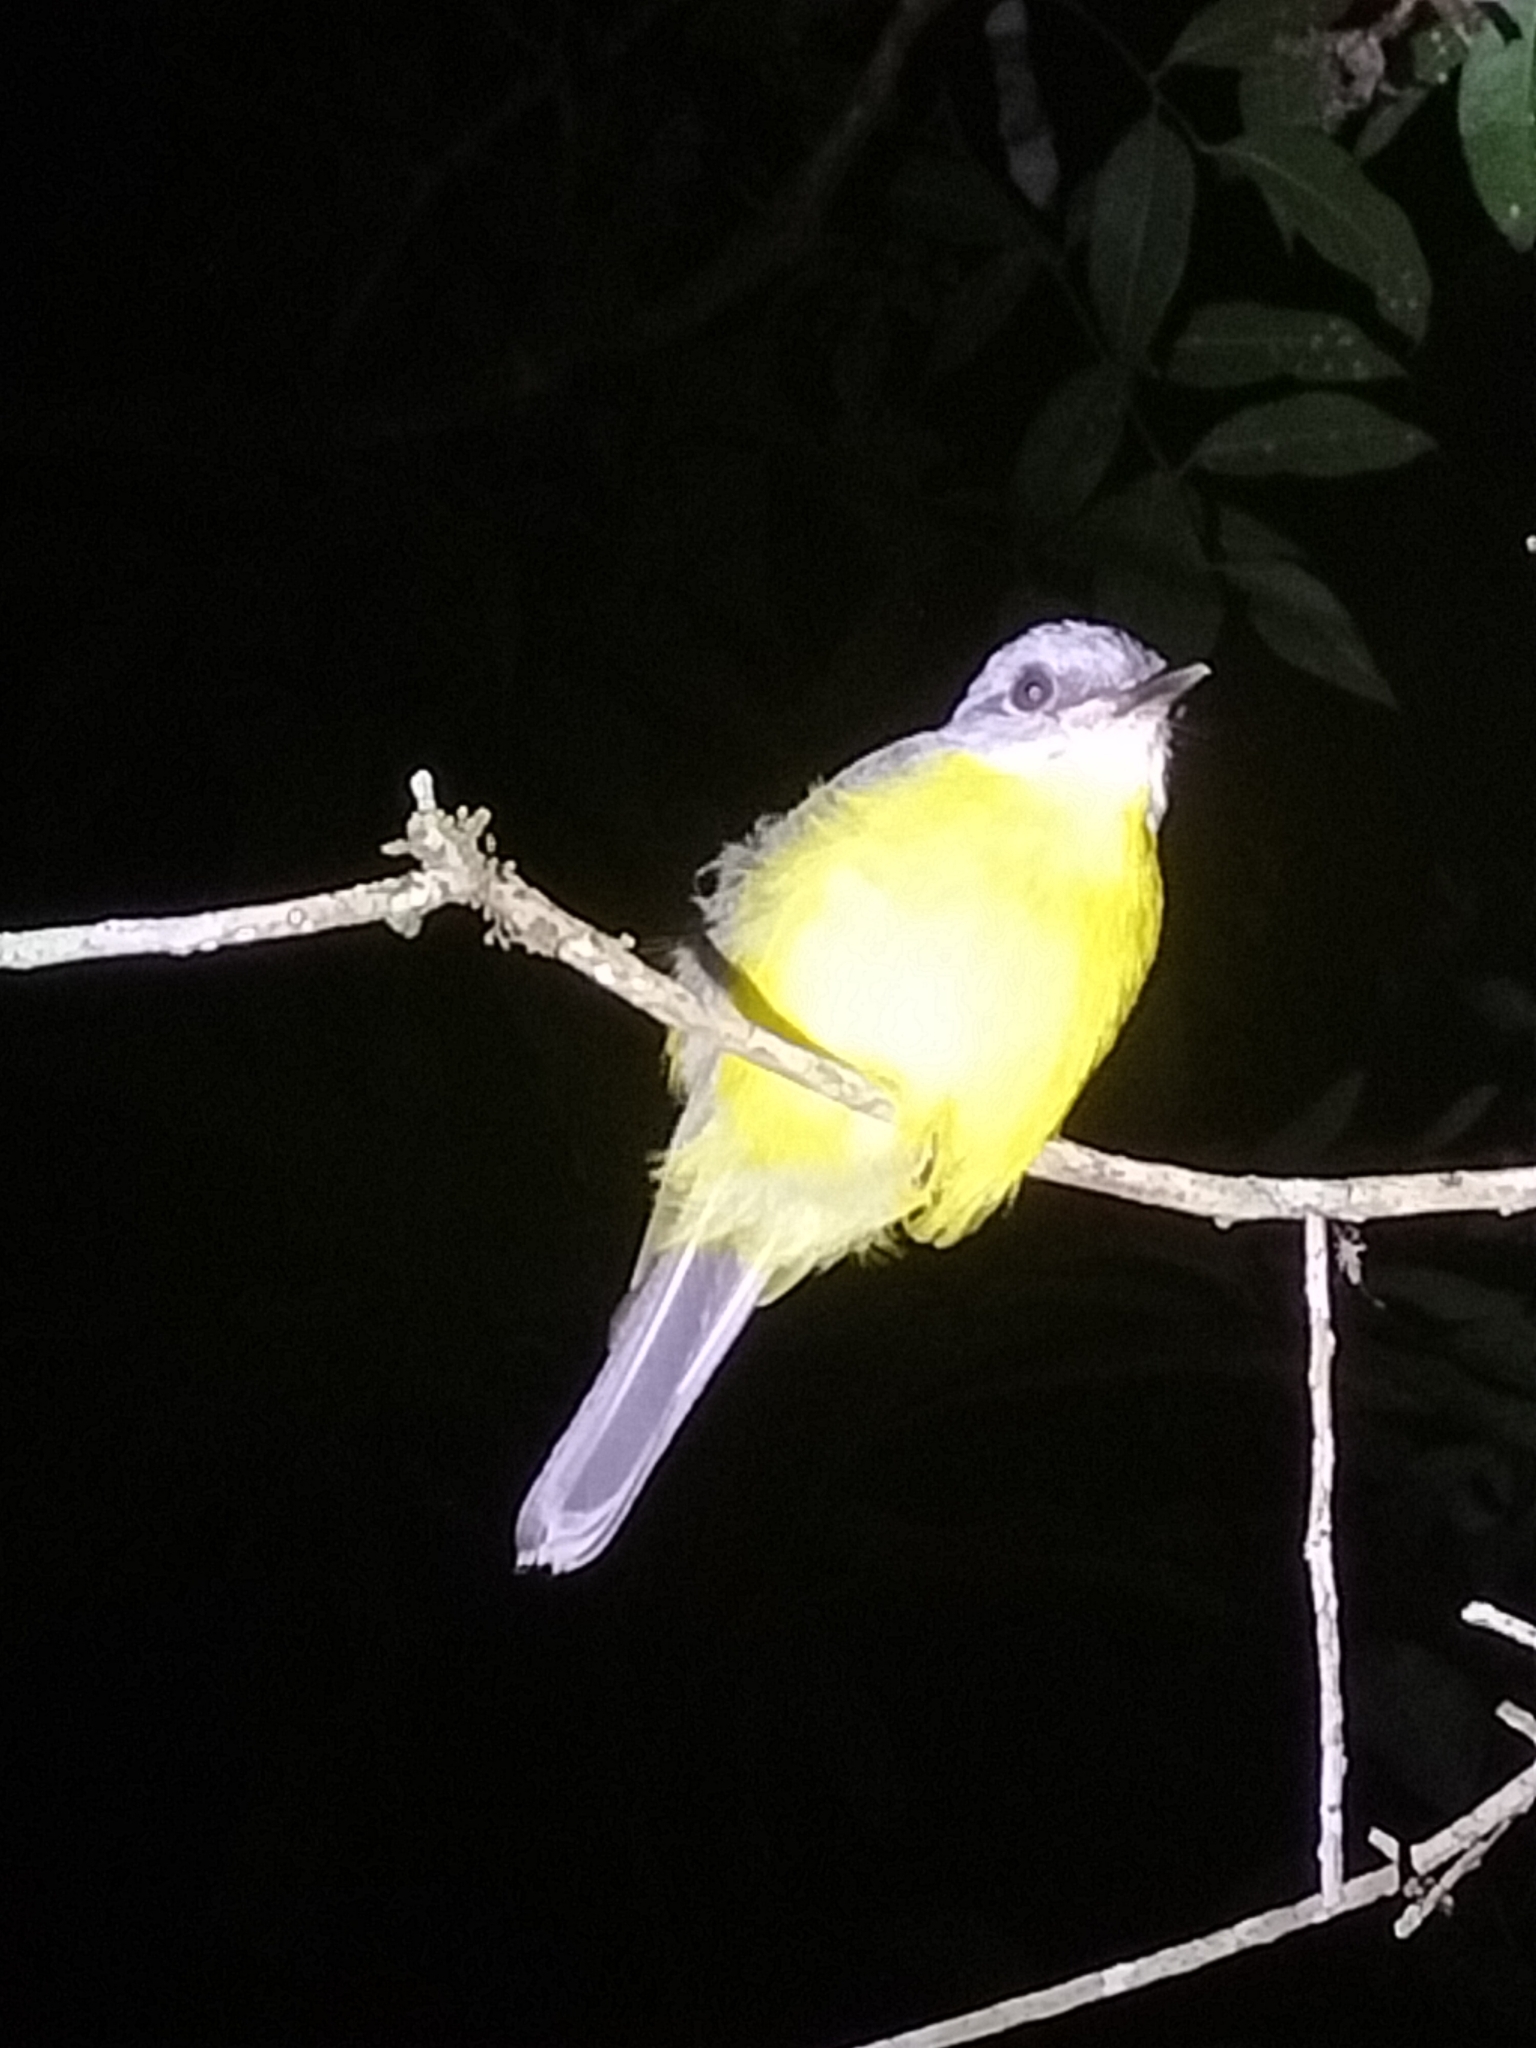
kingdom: Animalia
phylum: Chordata
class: Aves
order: Passeriformes
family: Petroicidae
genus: Eopsaltria
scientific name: Eopsaltria australis
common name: Eastern yellow robin
